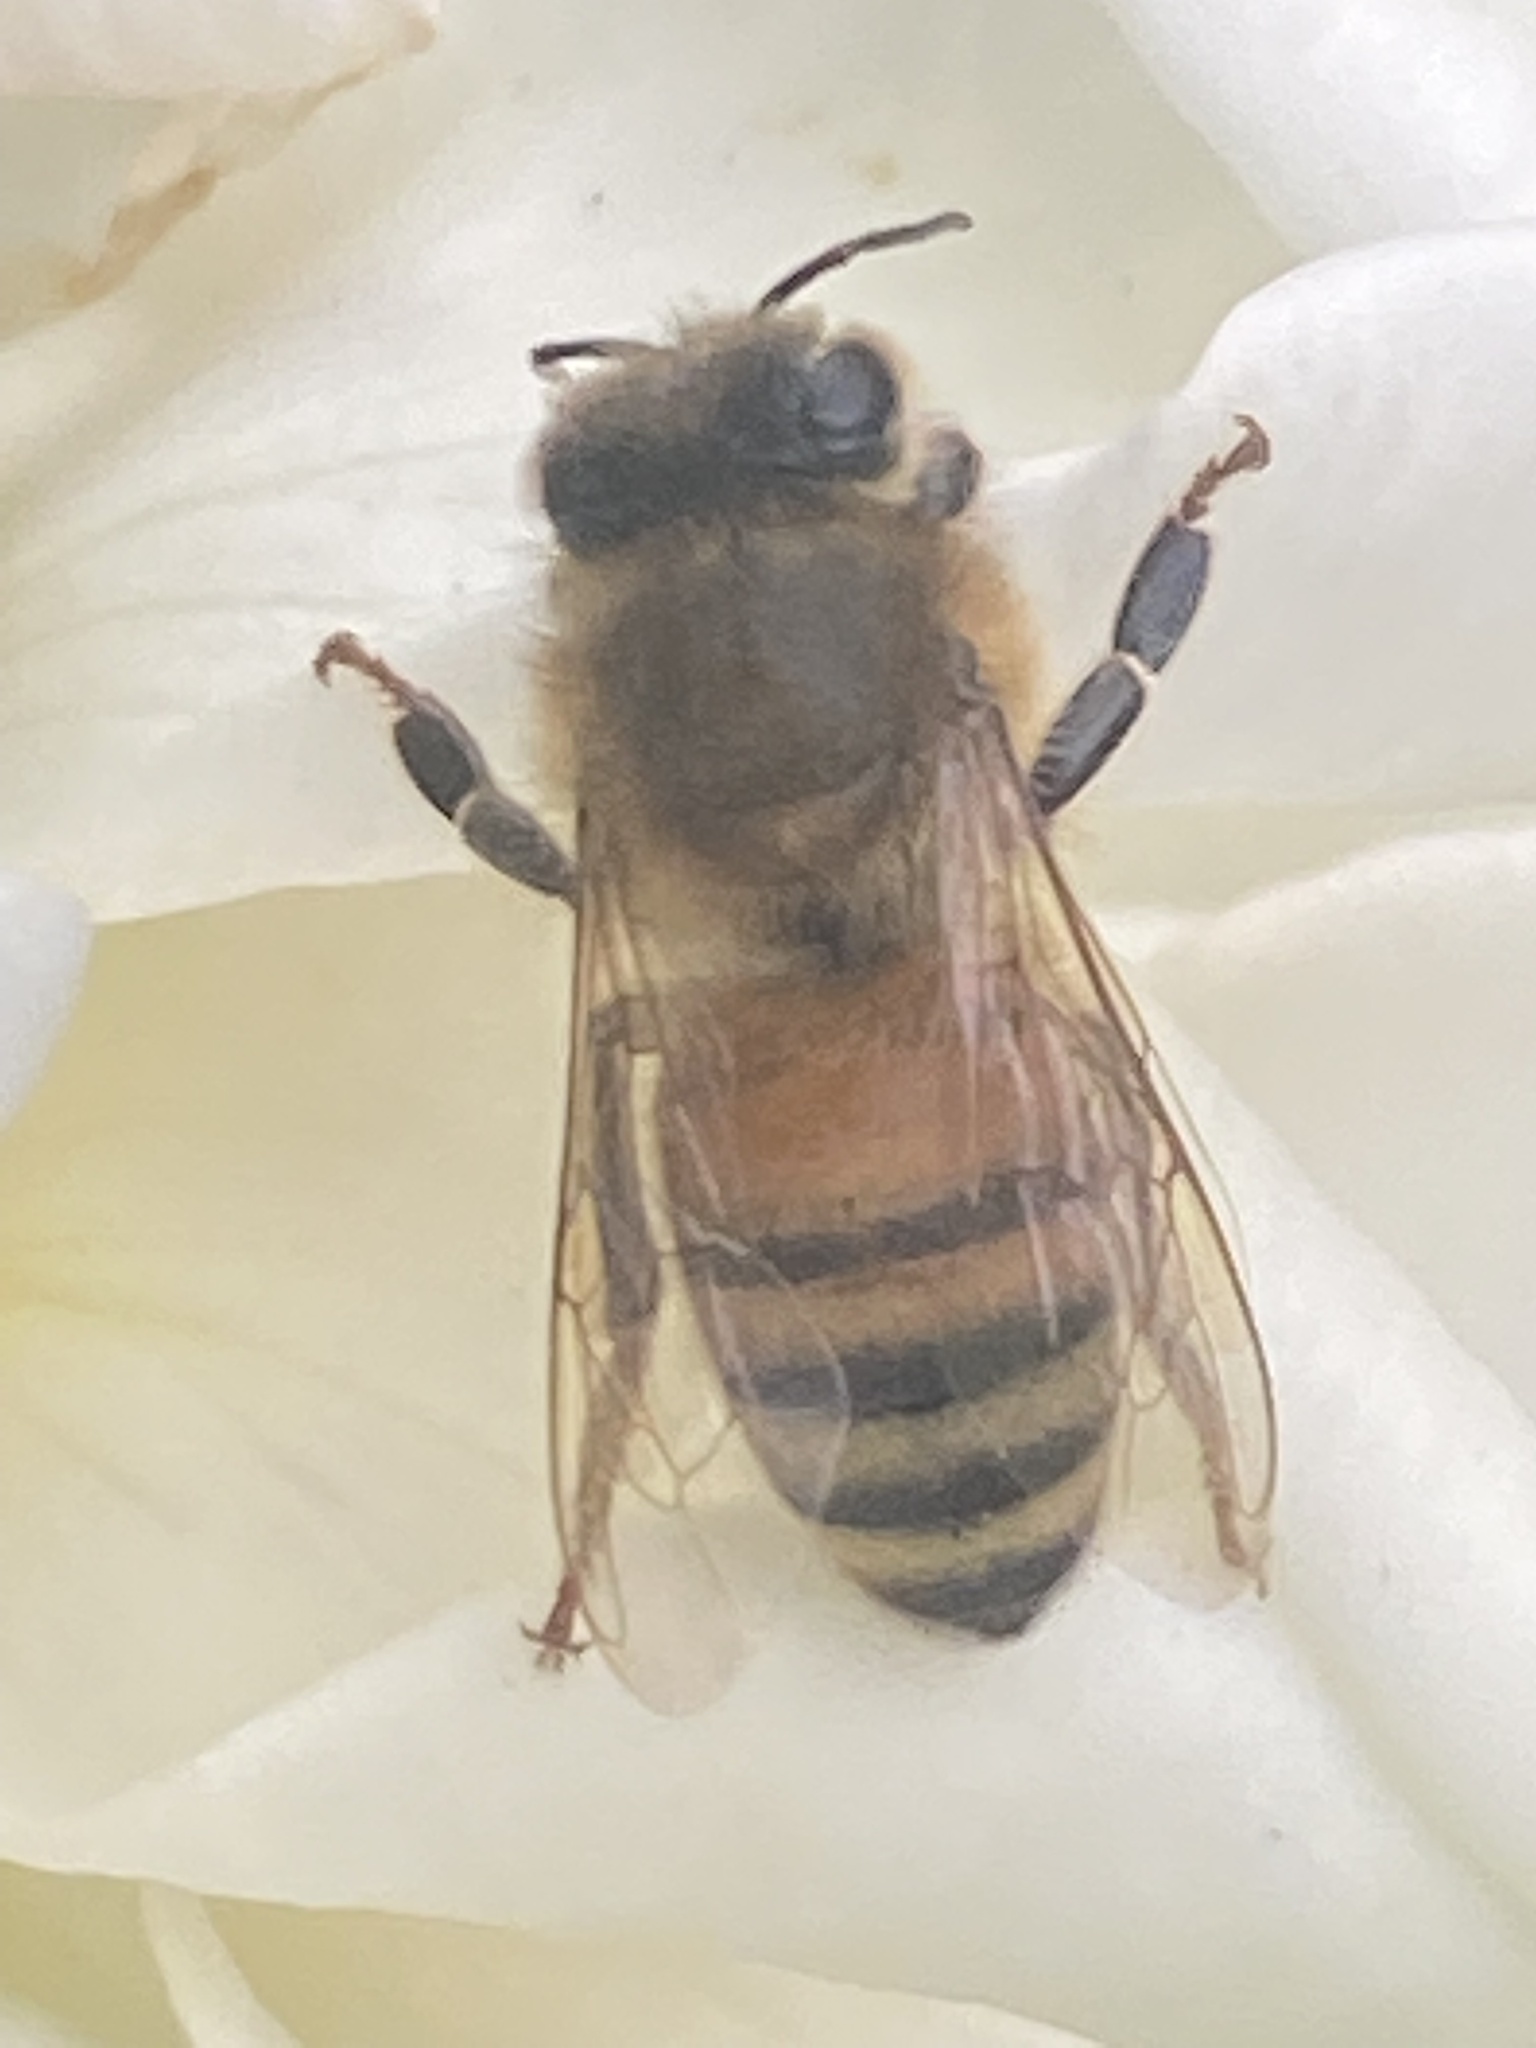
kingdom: Animalia
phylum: Arthropoda
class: Insecta
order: Hymenoptera
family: Apidae
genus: Apis
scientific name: Apis mellifera
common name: Honey bee
